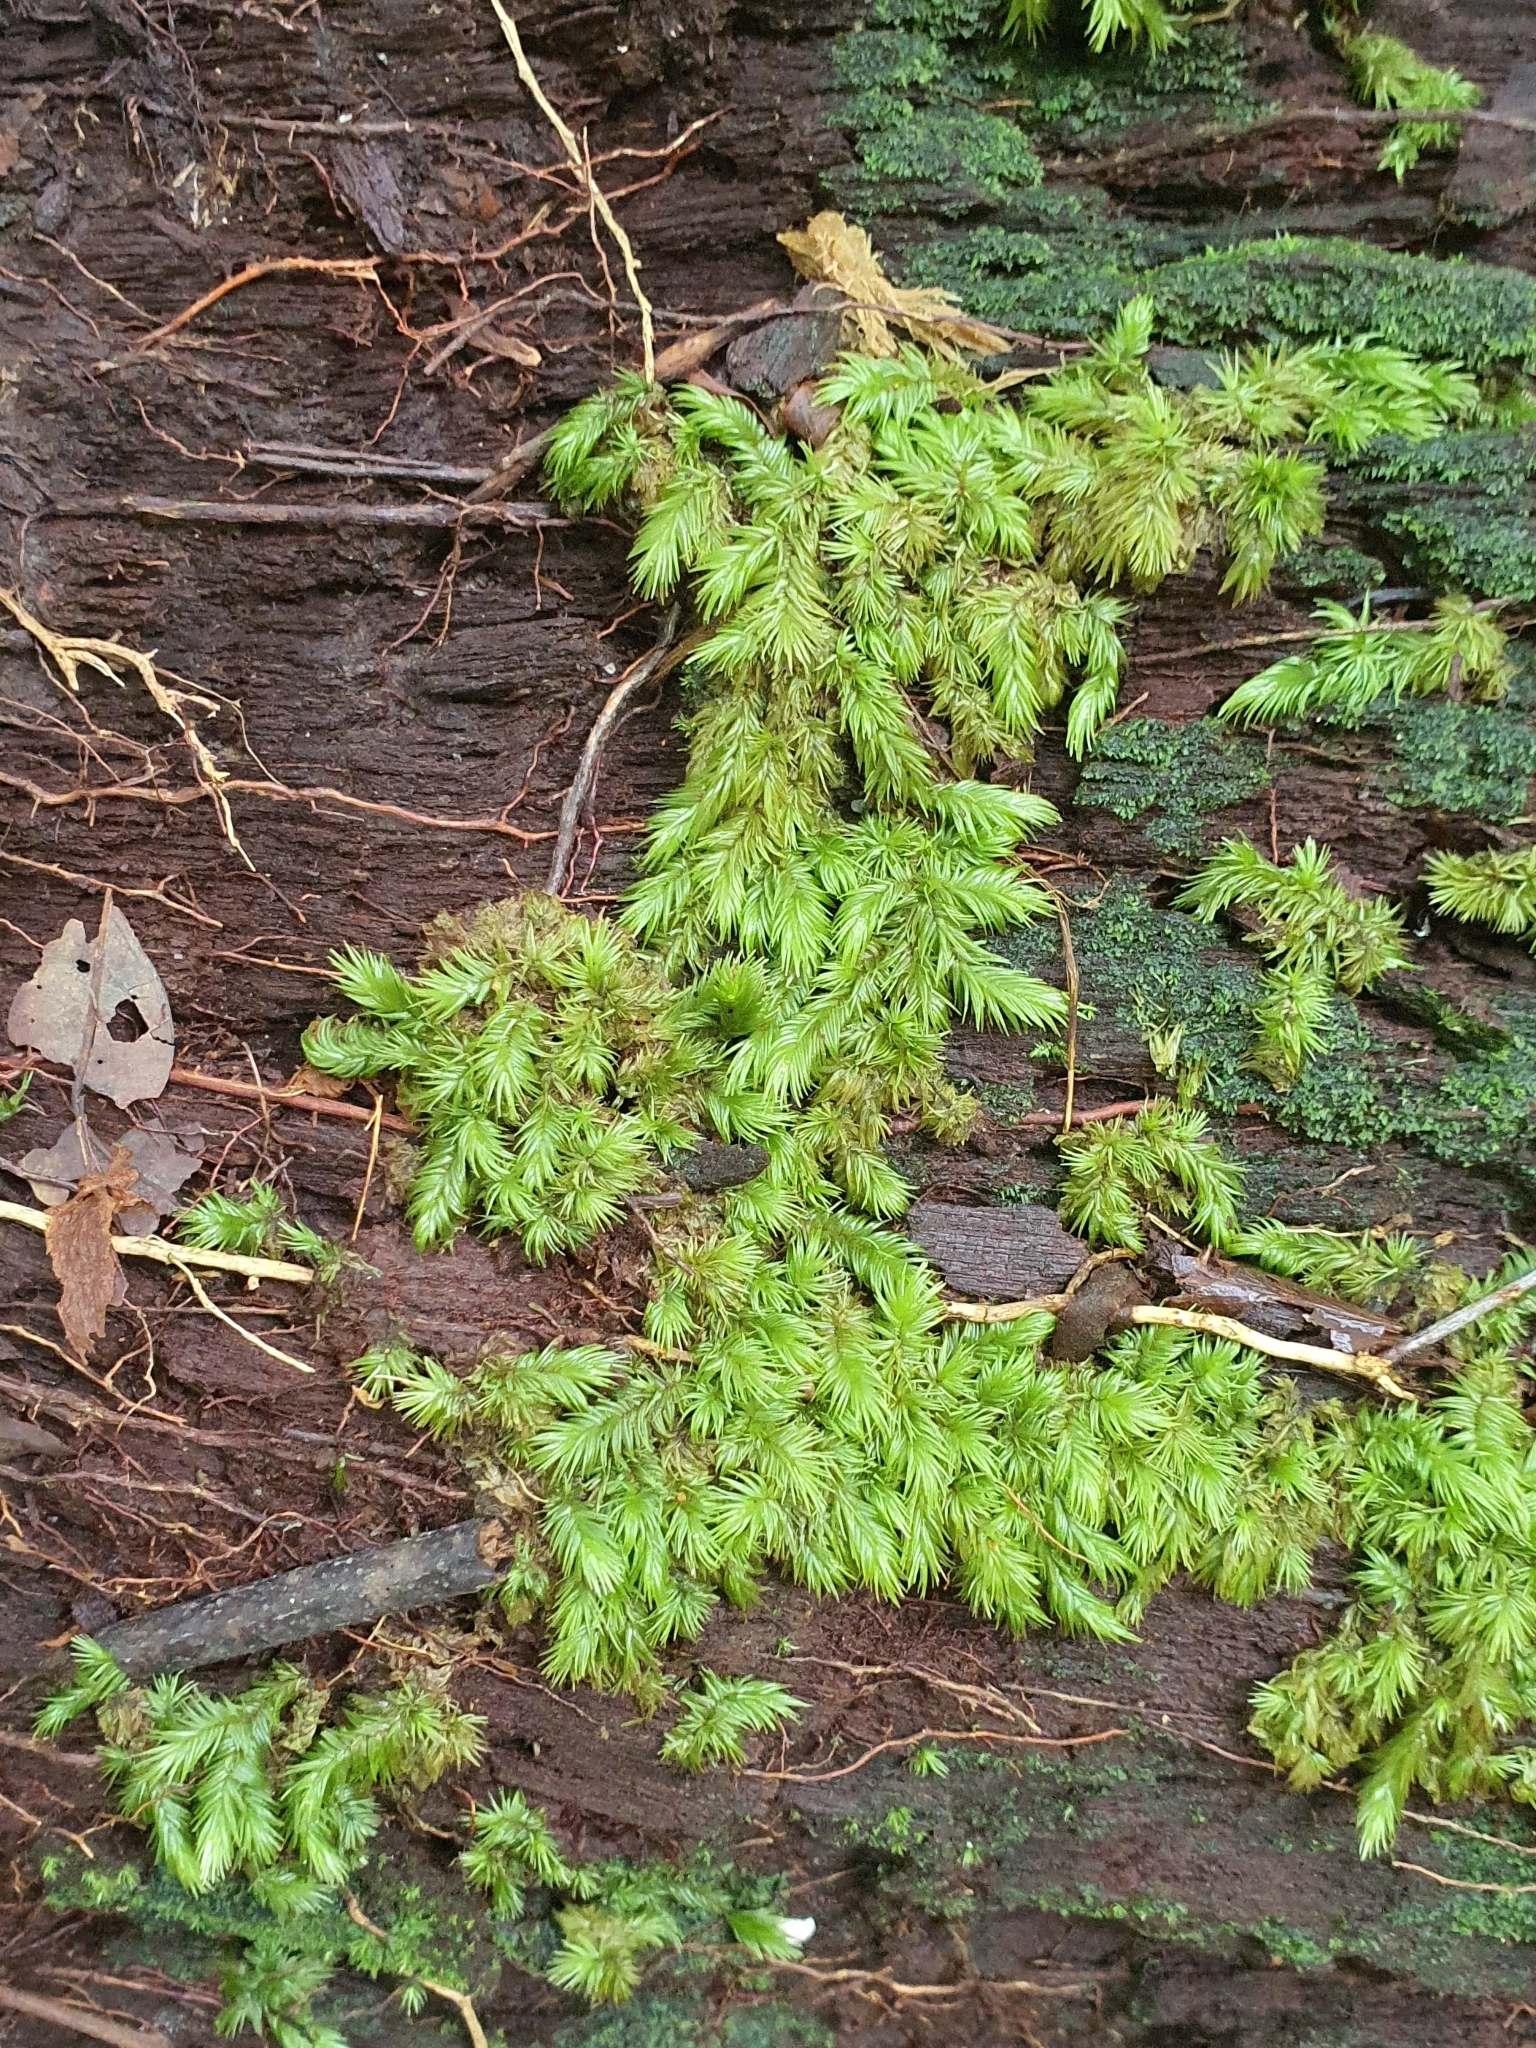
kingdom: Plantae
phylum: Bryophyta
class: Bryopsida
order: Dicranales
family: Leucobryaceae
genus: Leucobryum
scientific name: Leucobryum aduncum
